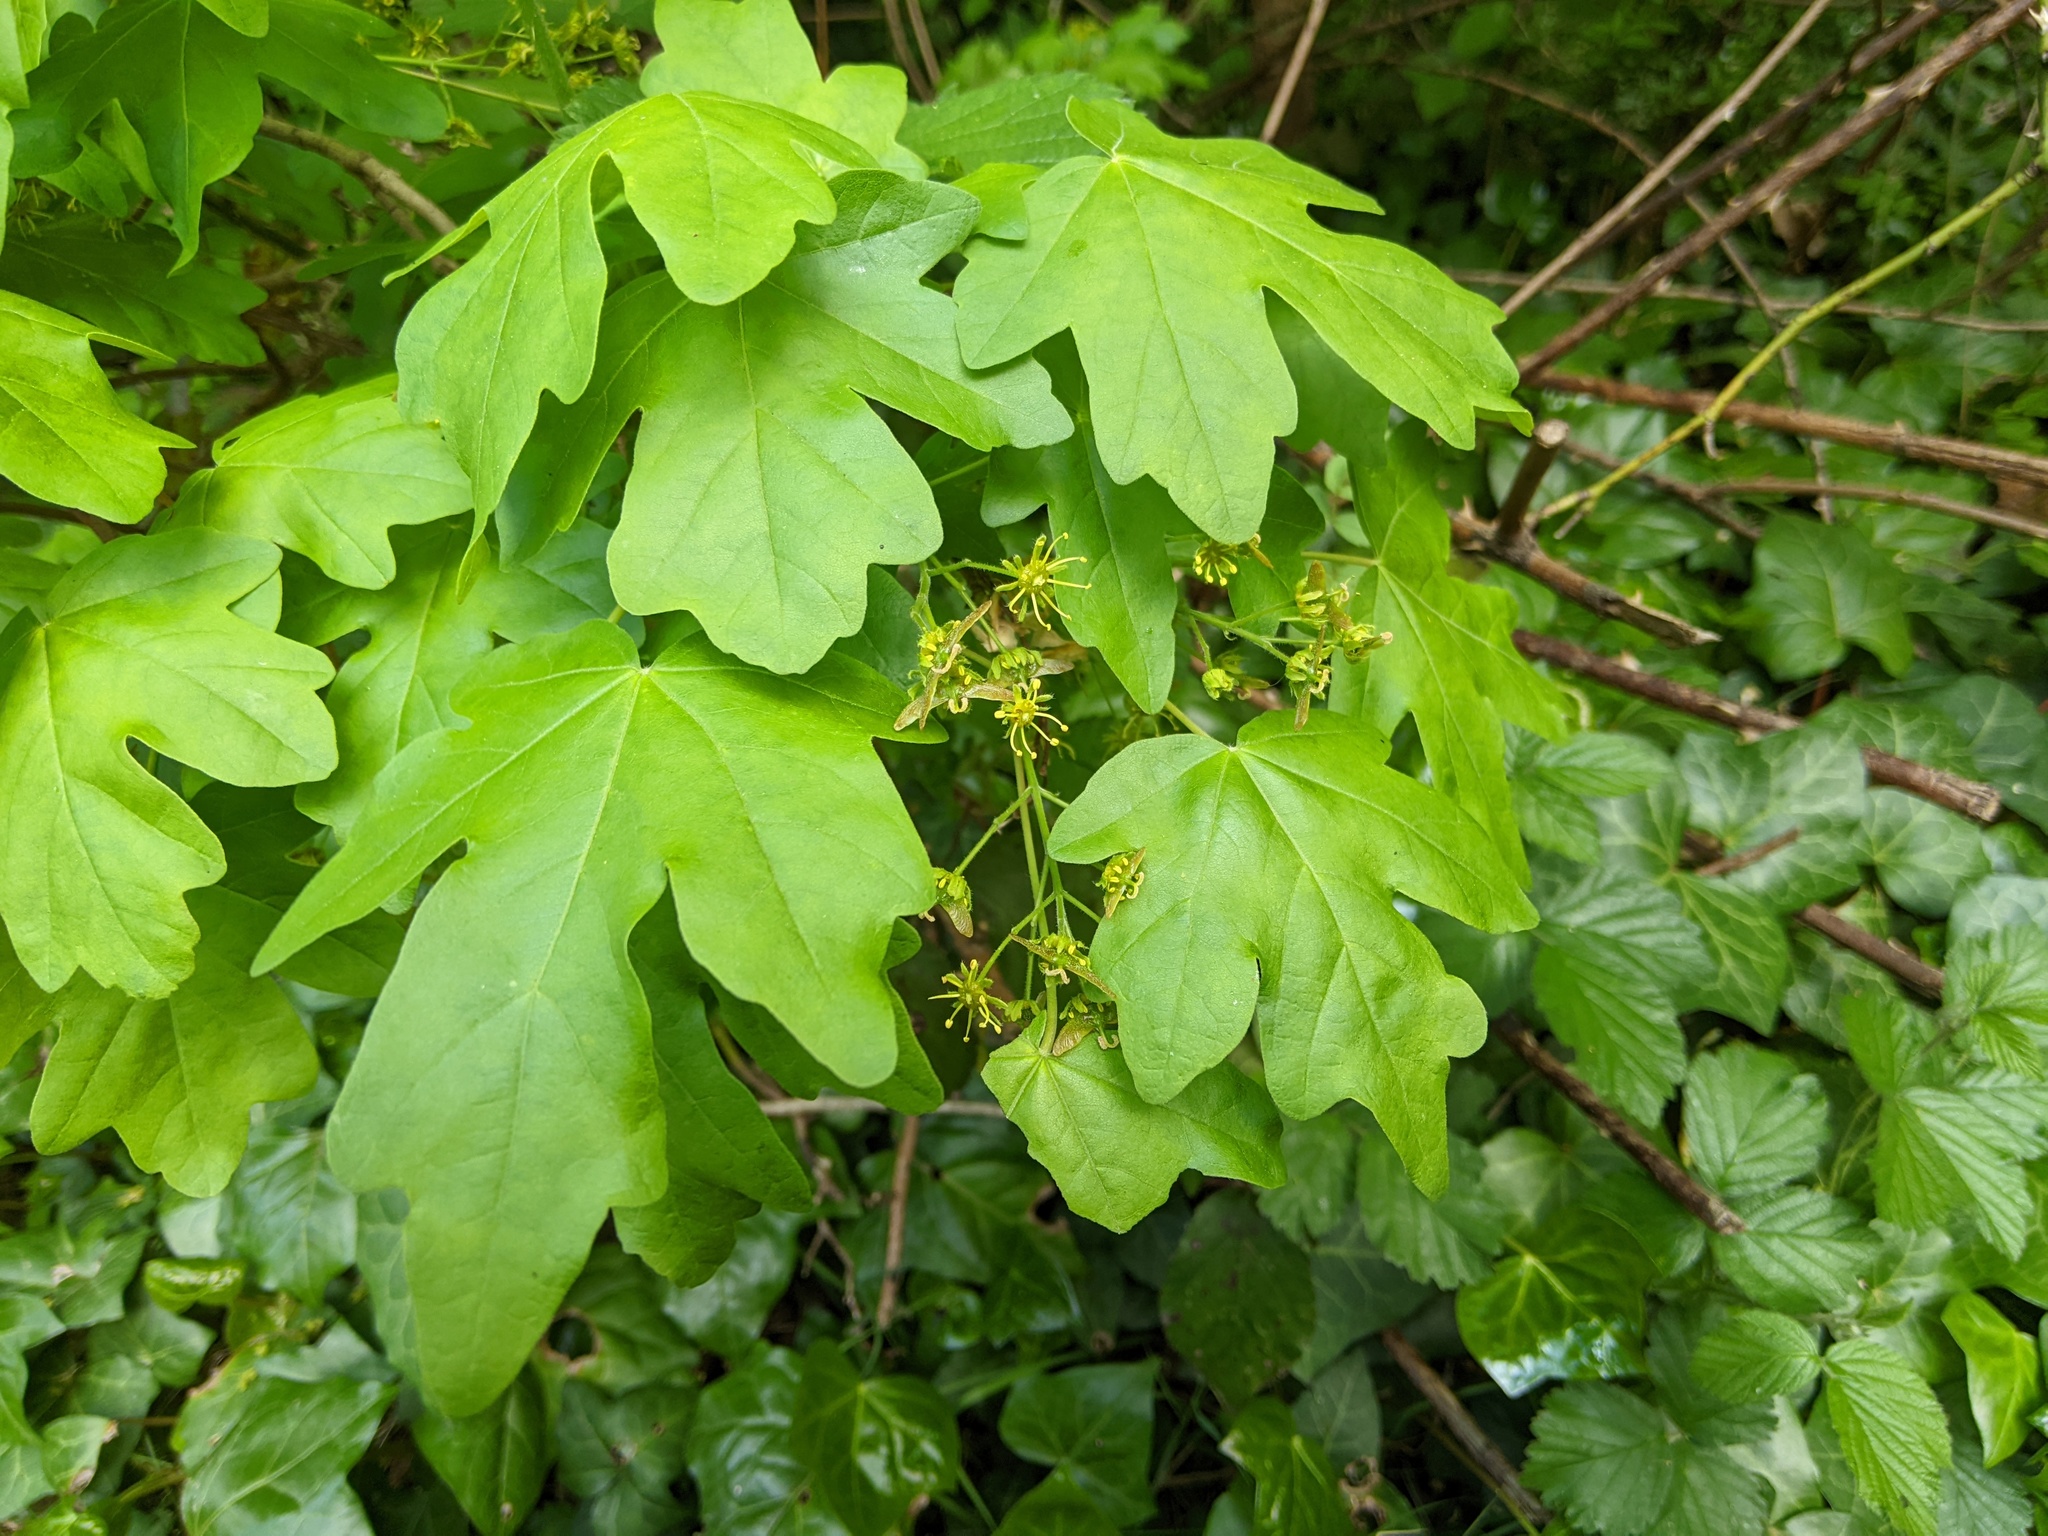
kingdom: Plantae
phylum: Tracheophyta
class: Magnoliopsida
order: Sapindales
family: Sapindaceae
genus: Acer
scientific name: Acer campestre
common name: Field maple
